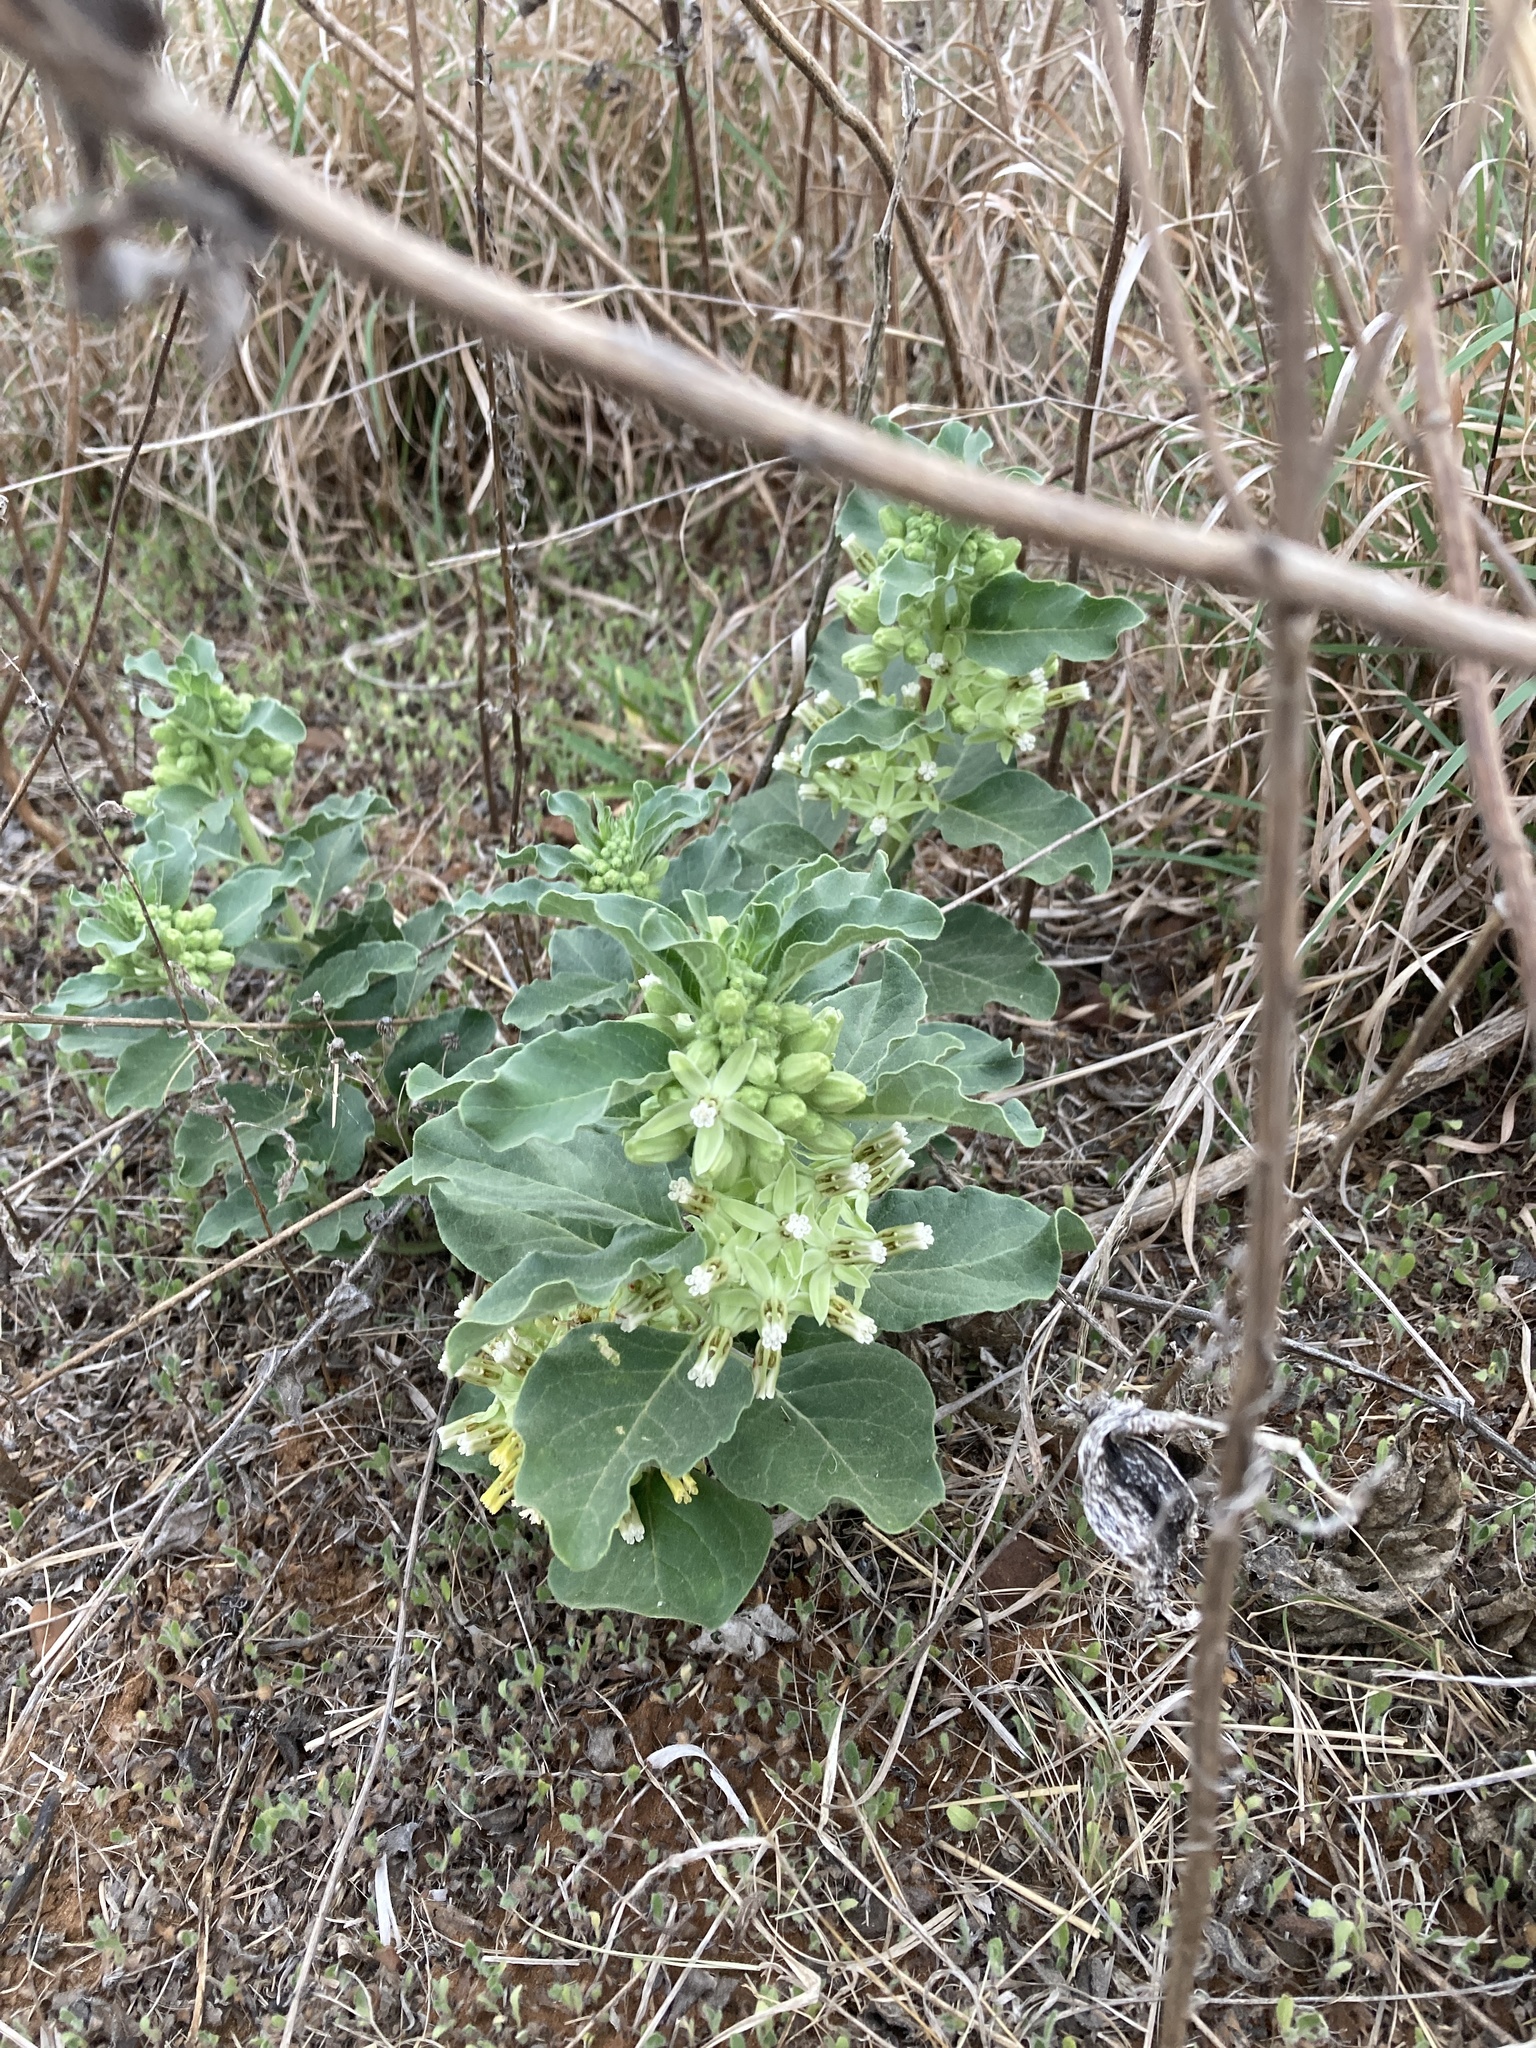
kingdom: Plantae
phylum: Tracheophyta
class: Magnoliopsida
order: Gentianales
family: Apocynaceae
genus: Asclepias
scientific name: Asclepias oenotheroides
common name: Zizotes milkweed
